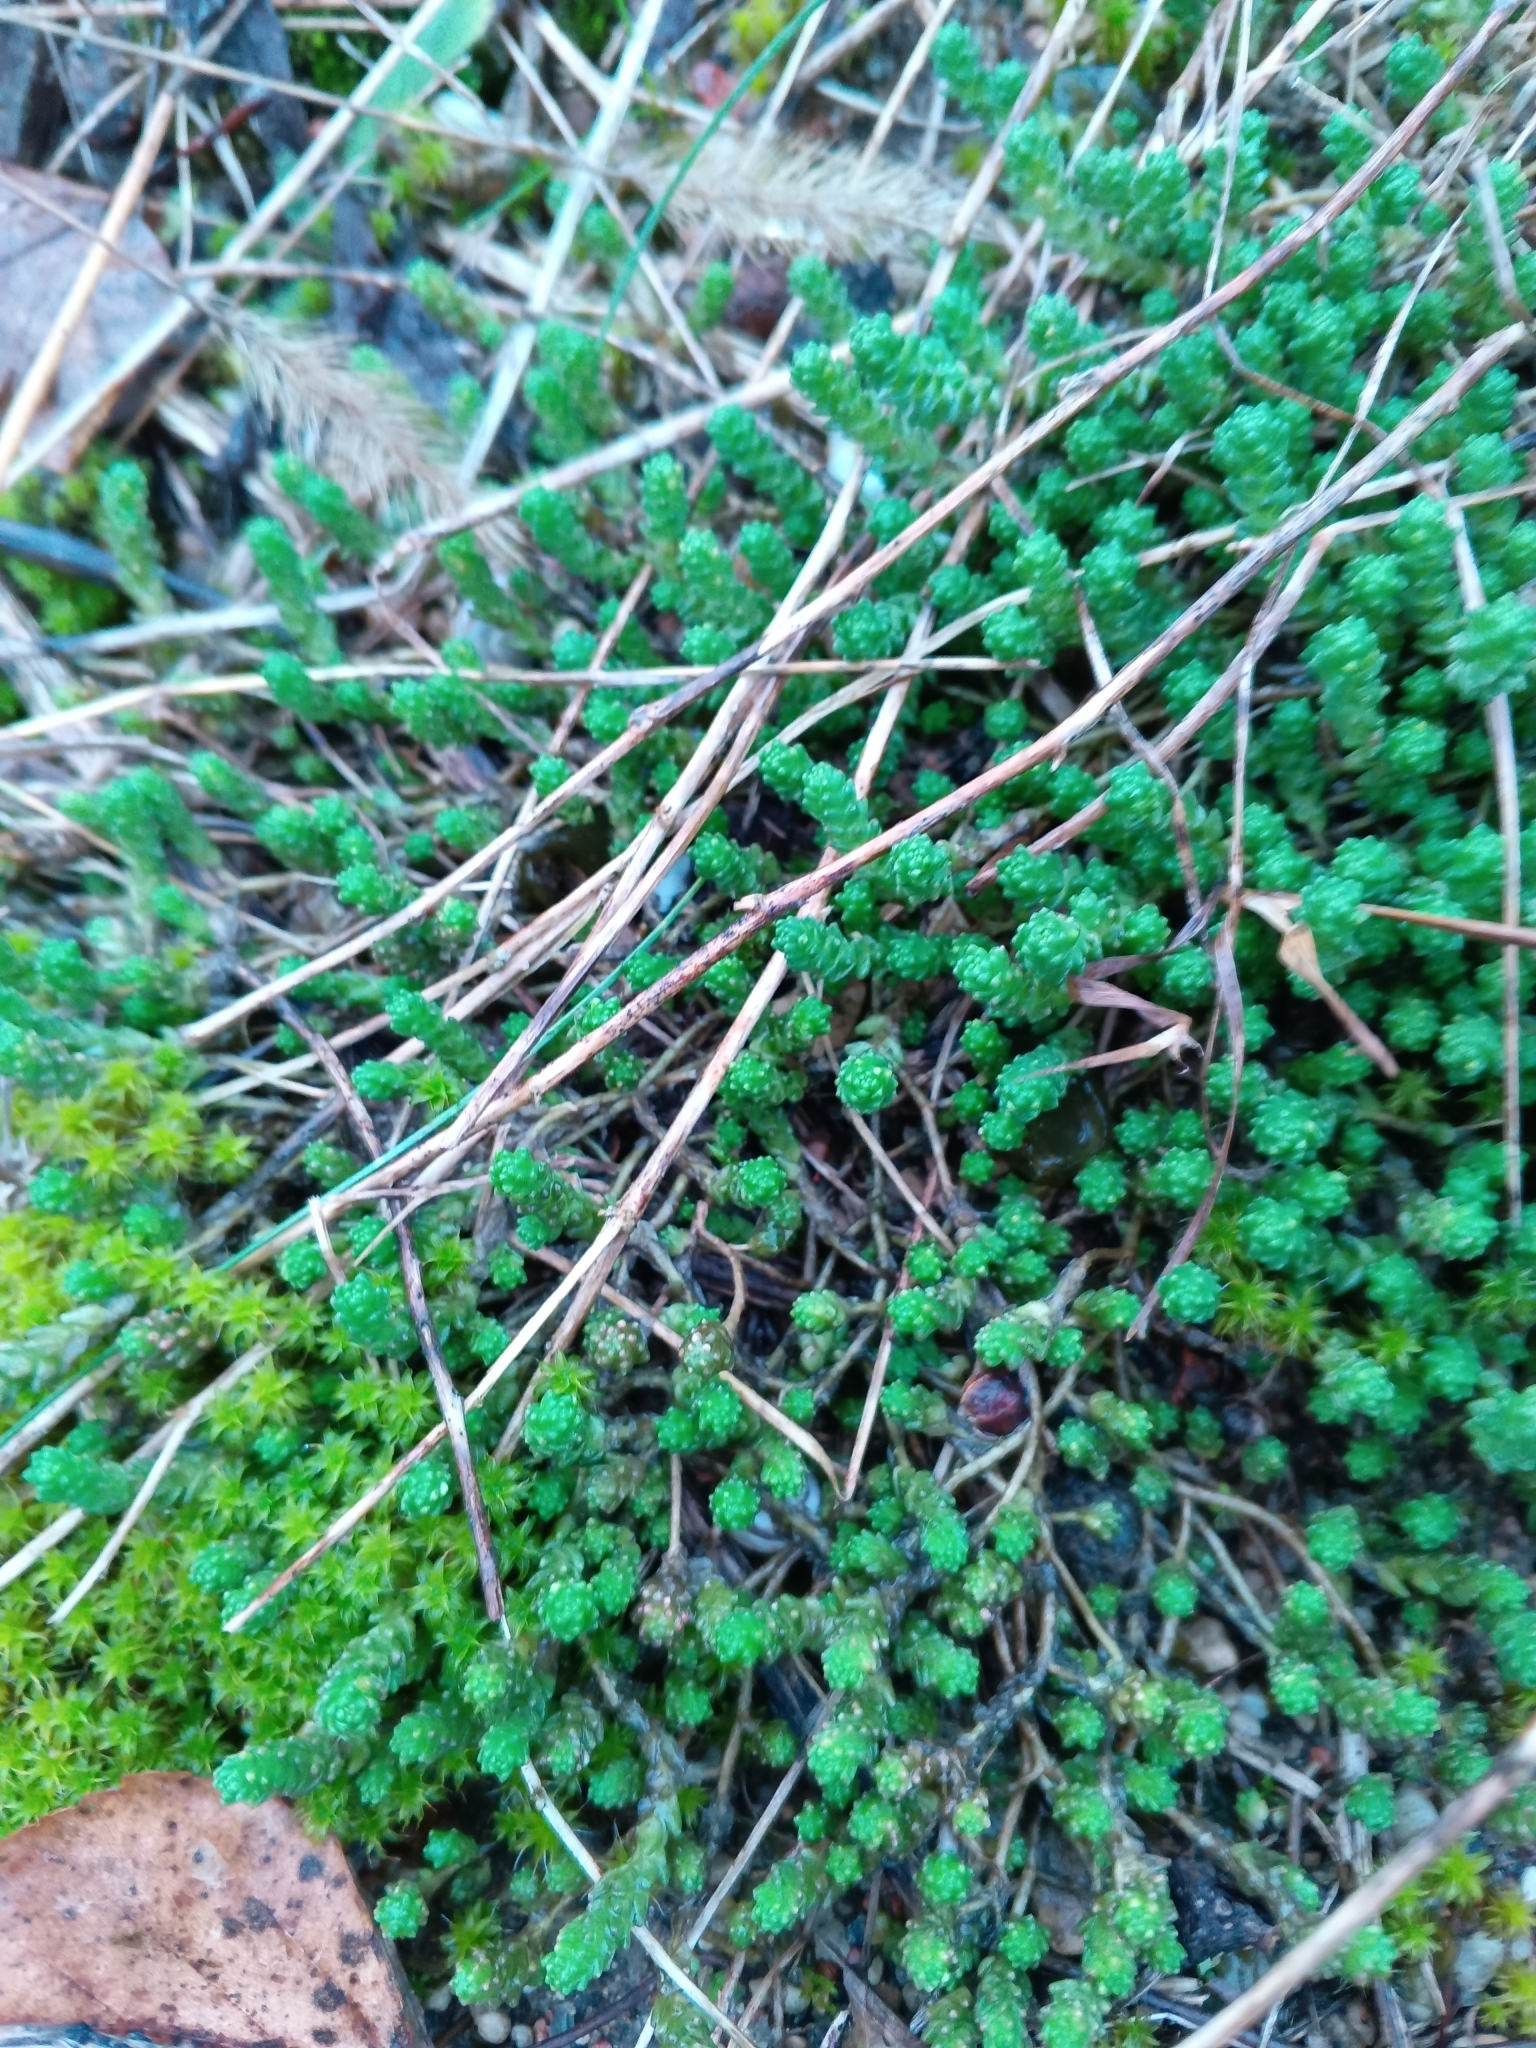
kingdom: Plantae
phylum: Tracheophyta
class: Magnoliopsida
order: Saxifragales
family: Crassulaceae
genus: Sedum
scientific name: Sedum acre
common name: Biting stonecrop
